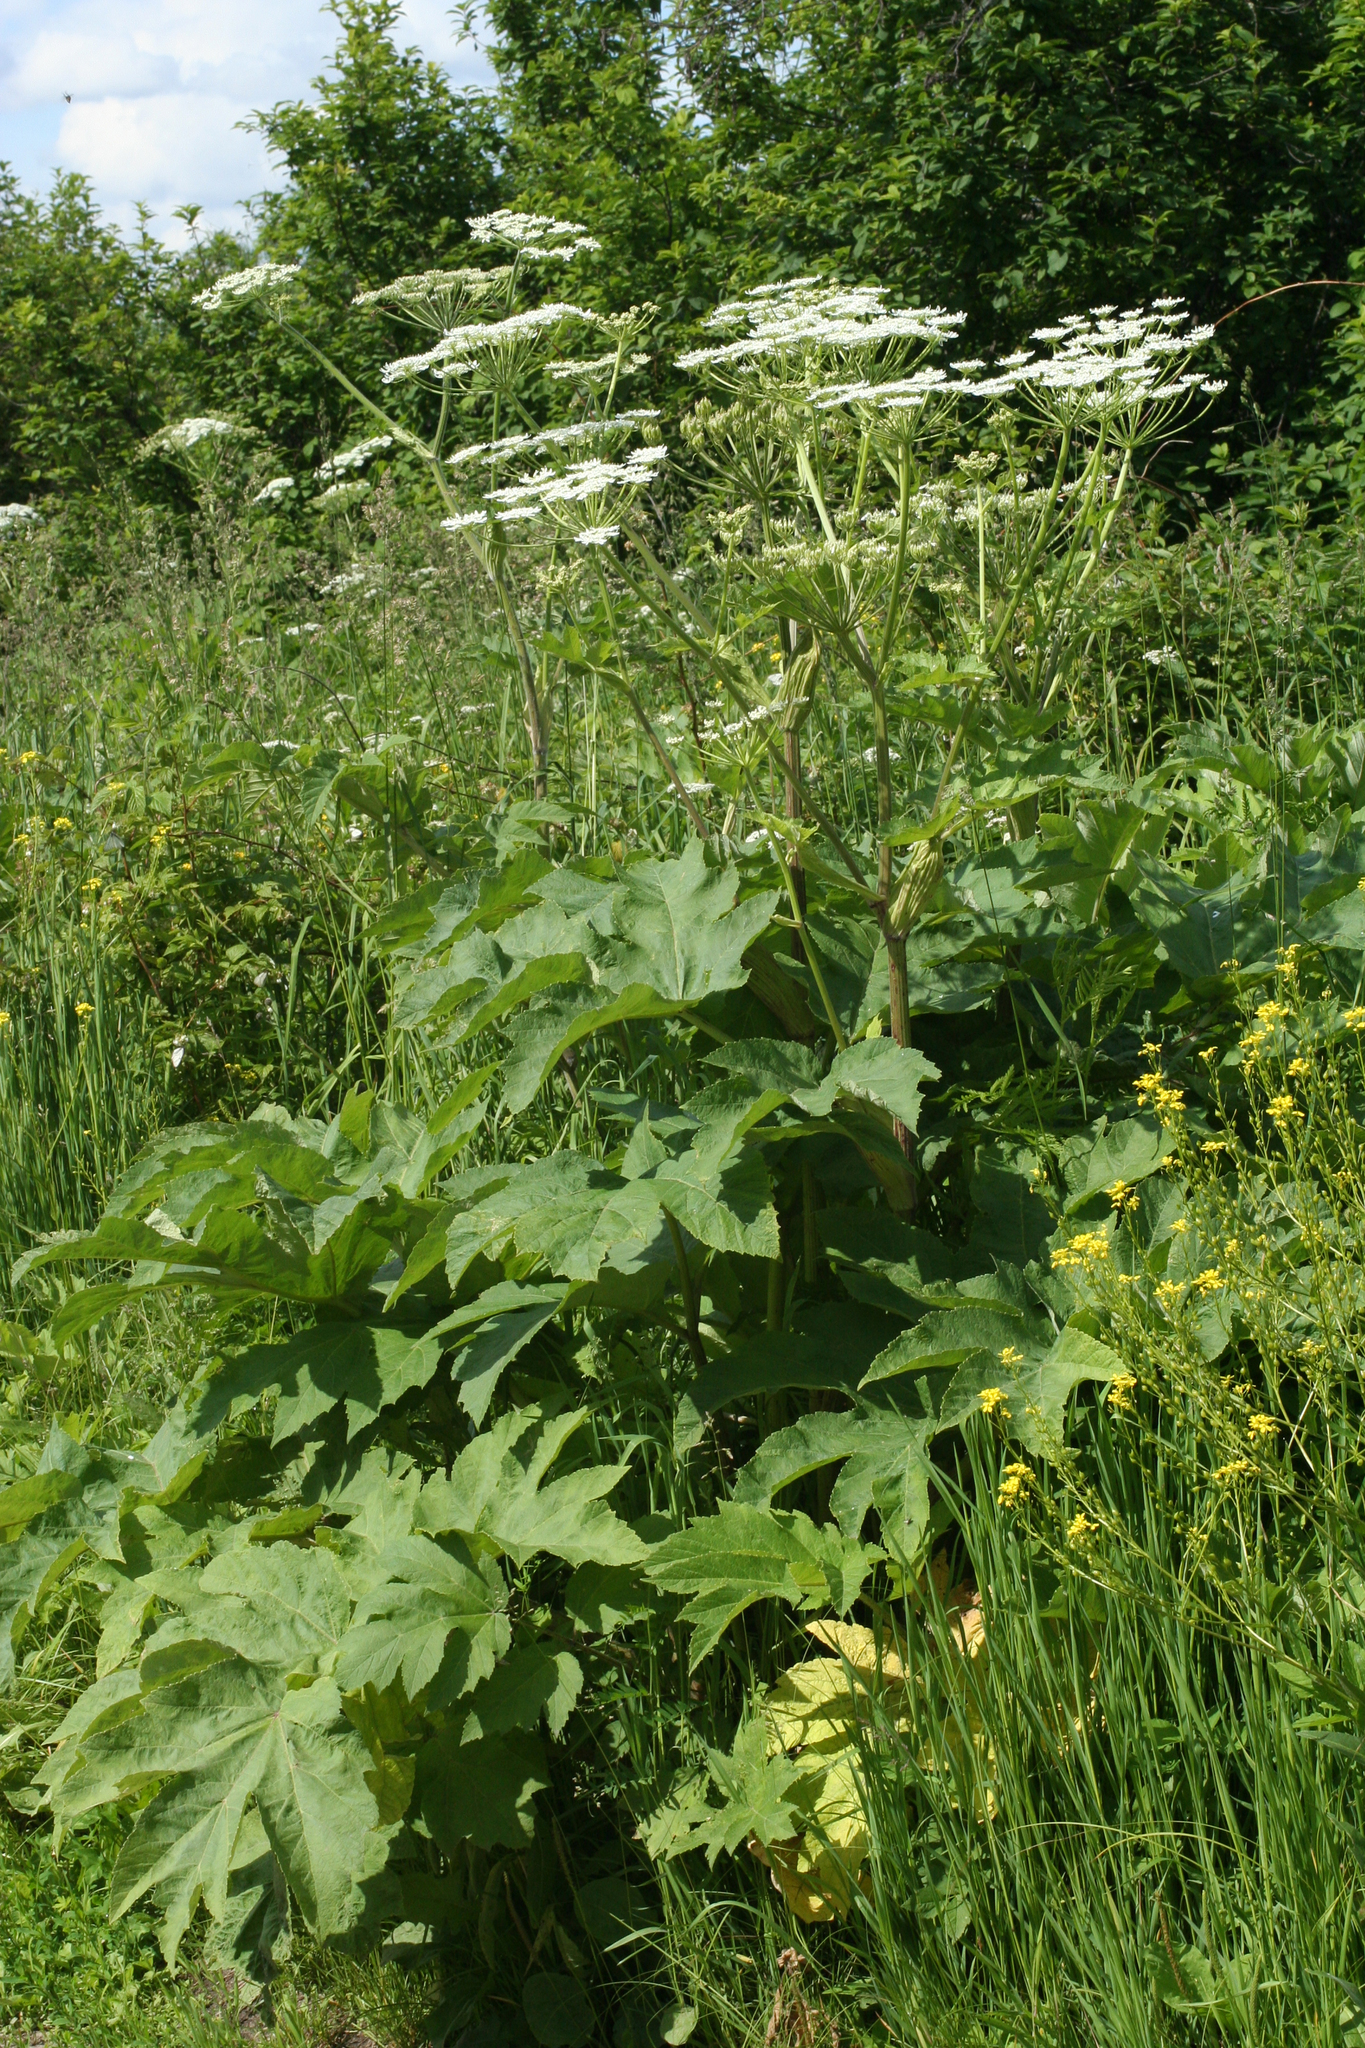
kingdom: Plantae
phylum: Tracheophyta
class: Magnoliopsida
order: Apiales
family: Apiaceae
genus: Heracleum
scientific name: Heracleum dissectum
